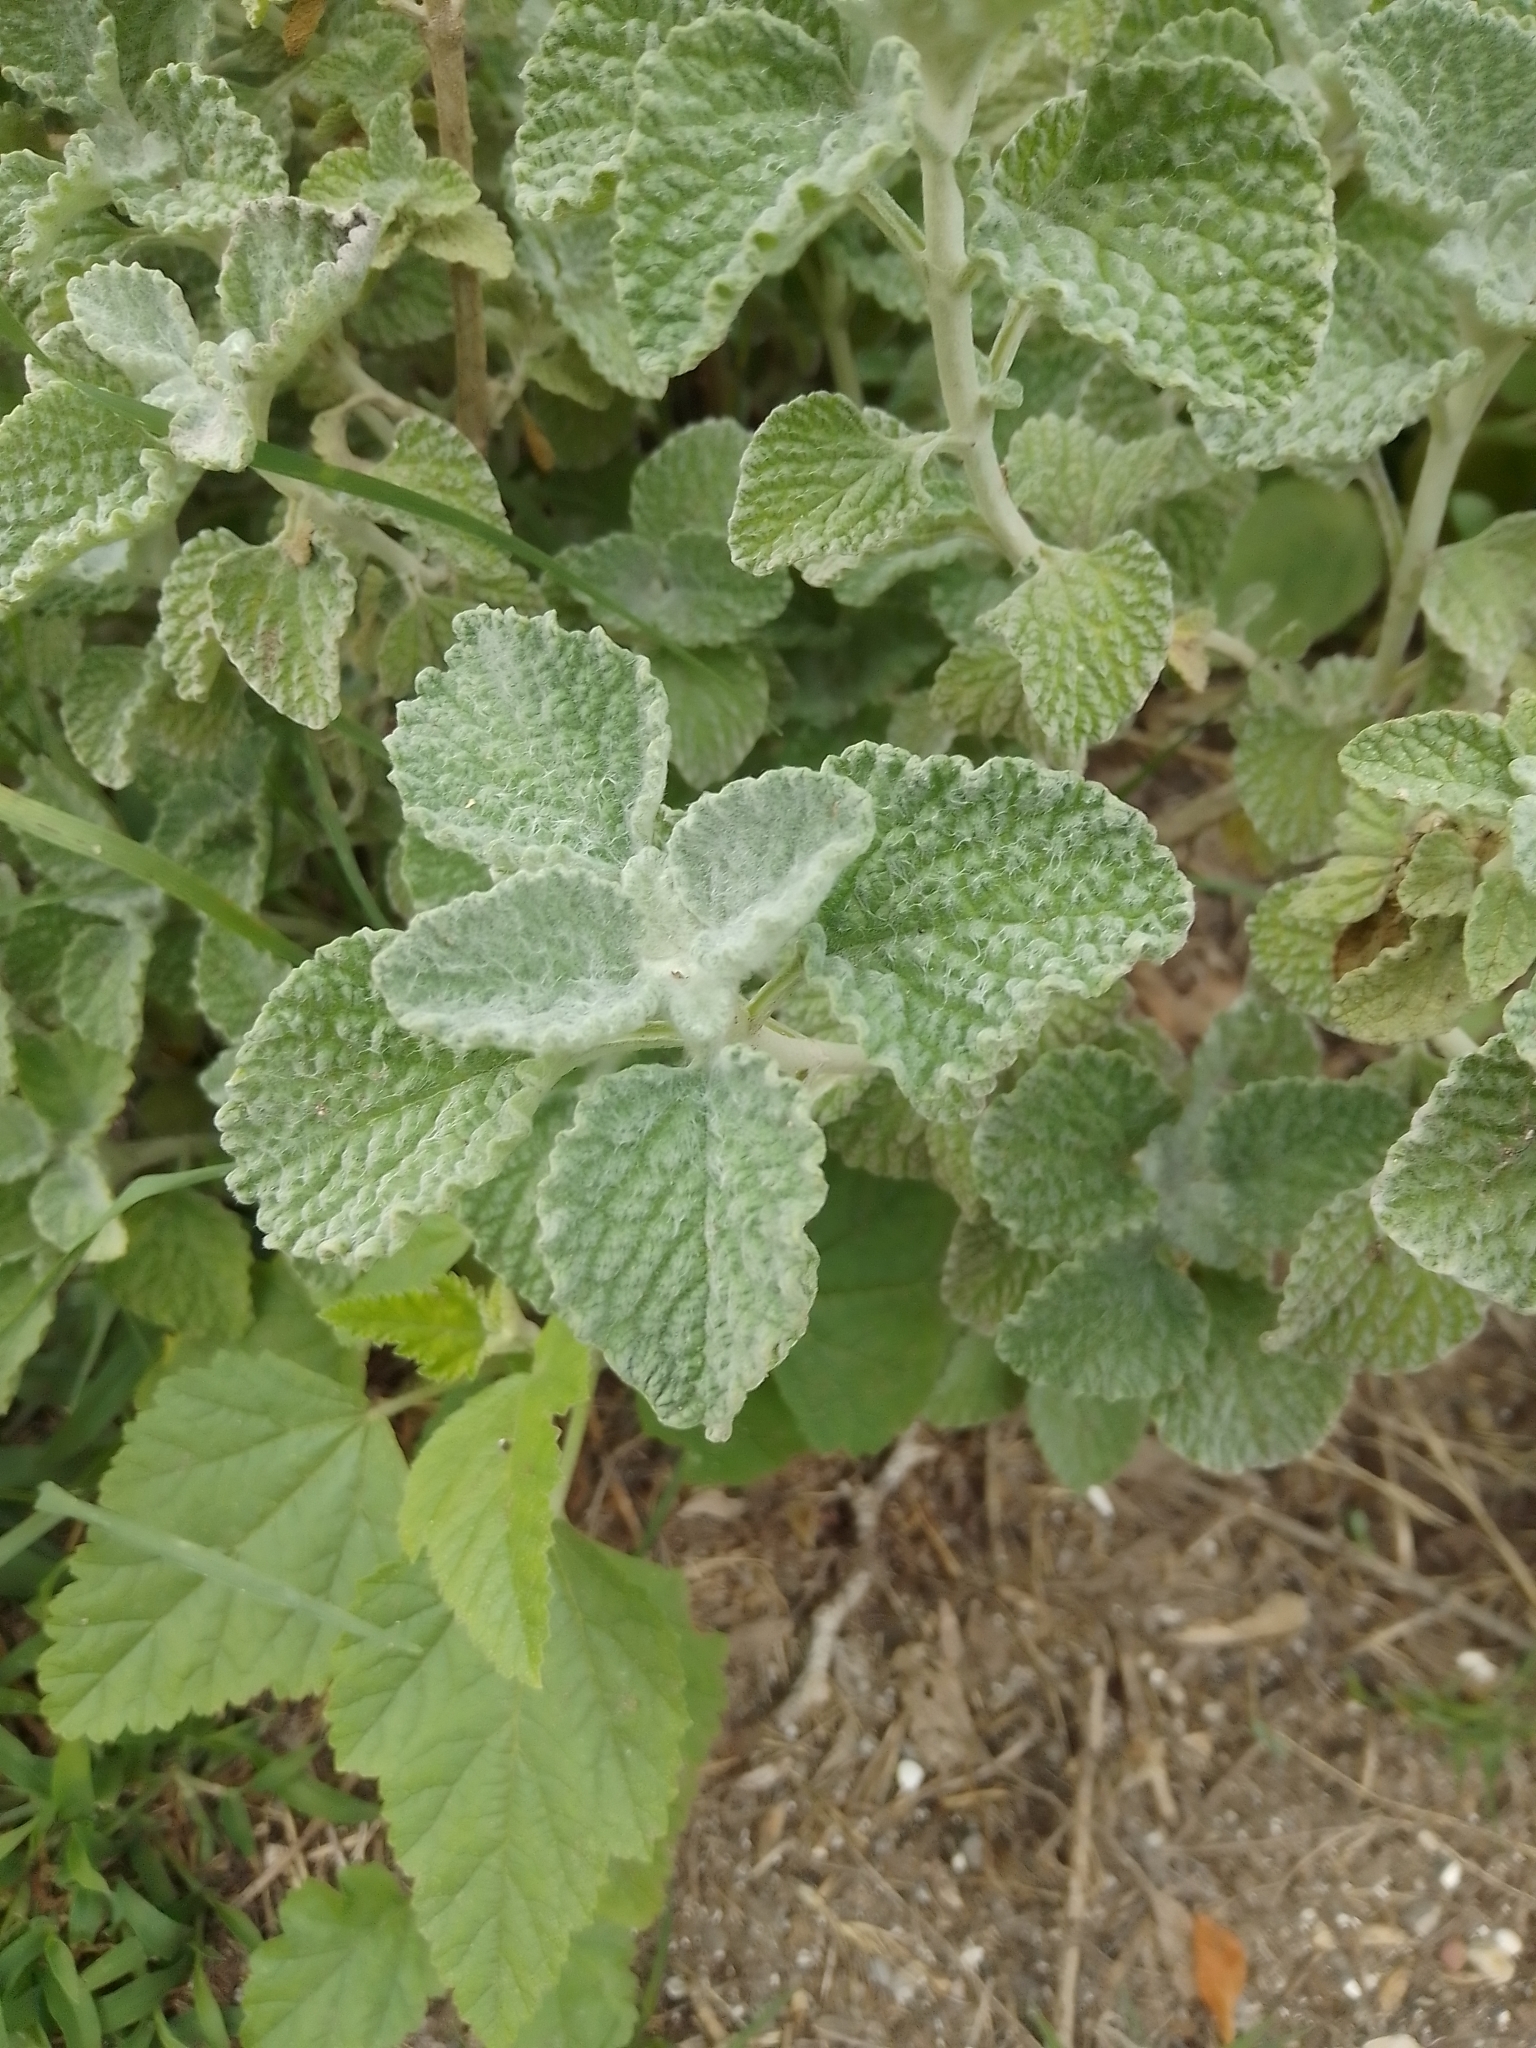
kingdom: Plantae
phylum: Tracheophyta
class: Magnoliopsida
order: Lamiales
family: Lamiaceae
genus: Marrubium
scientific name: Marrubium vulgare
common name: Horehound
